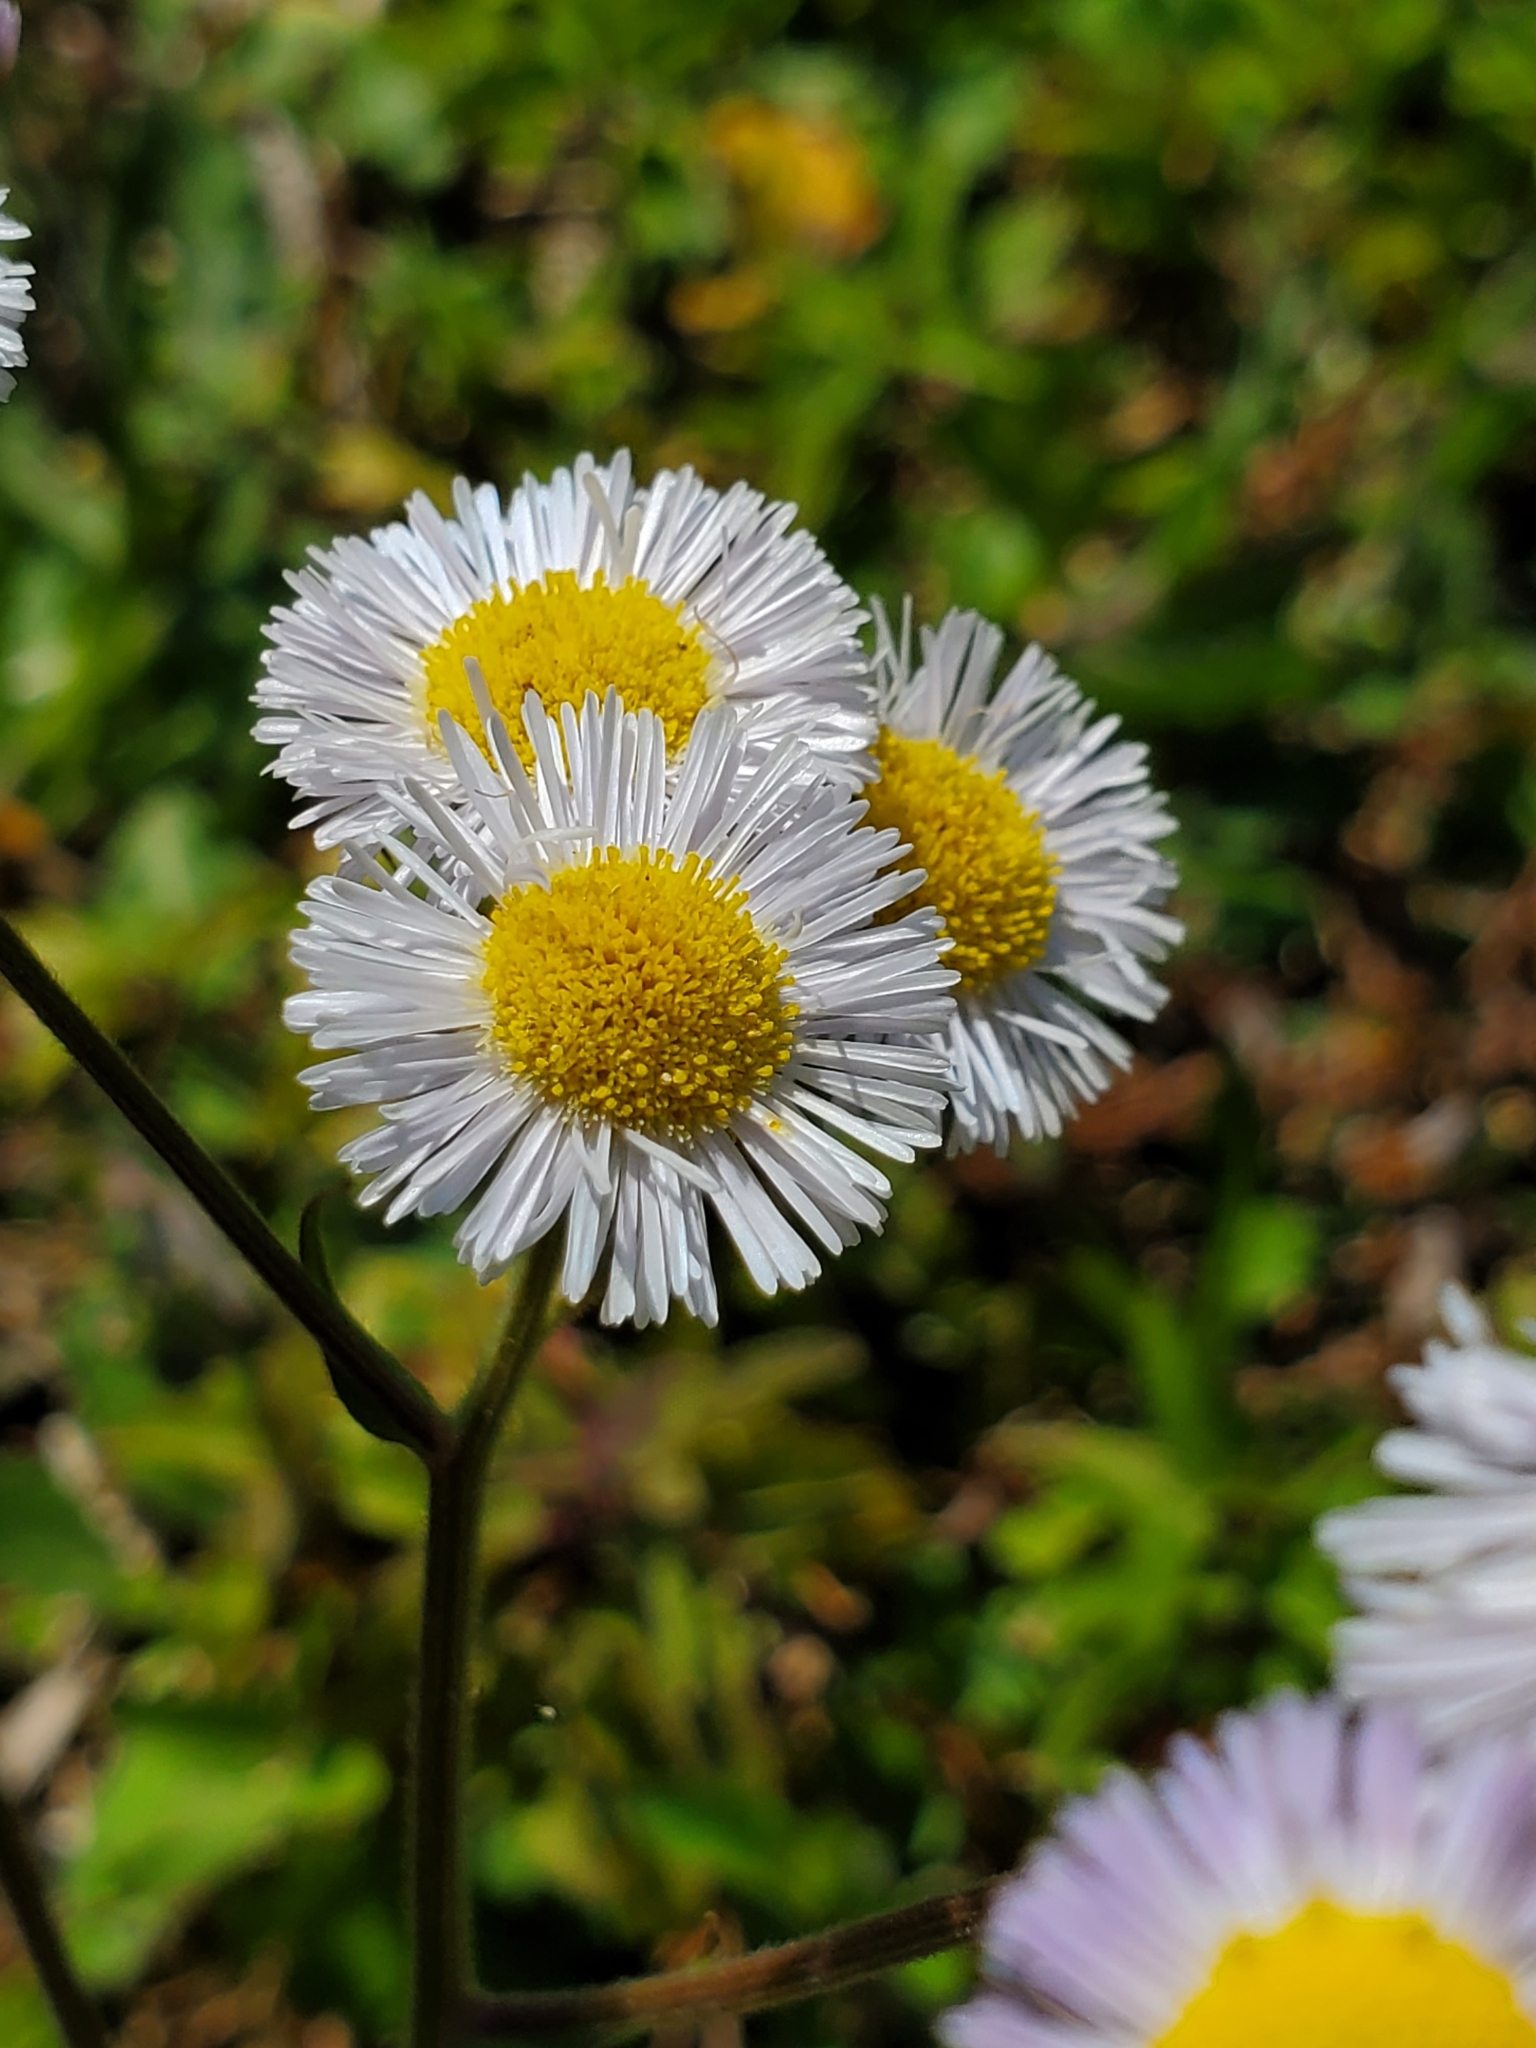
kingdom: Plantae
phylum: Tracheophyta
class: Magnoliopsida
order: Asterales
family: Asteraceae
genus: Erigeron
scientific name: Erigeron quercifolius
